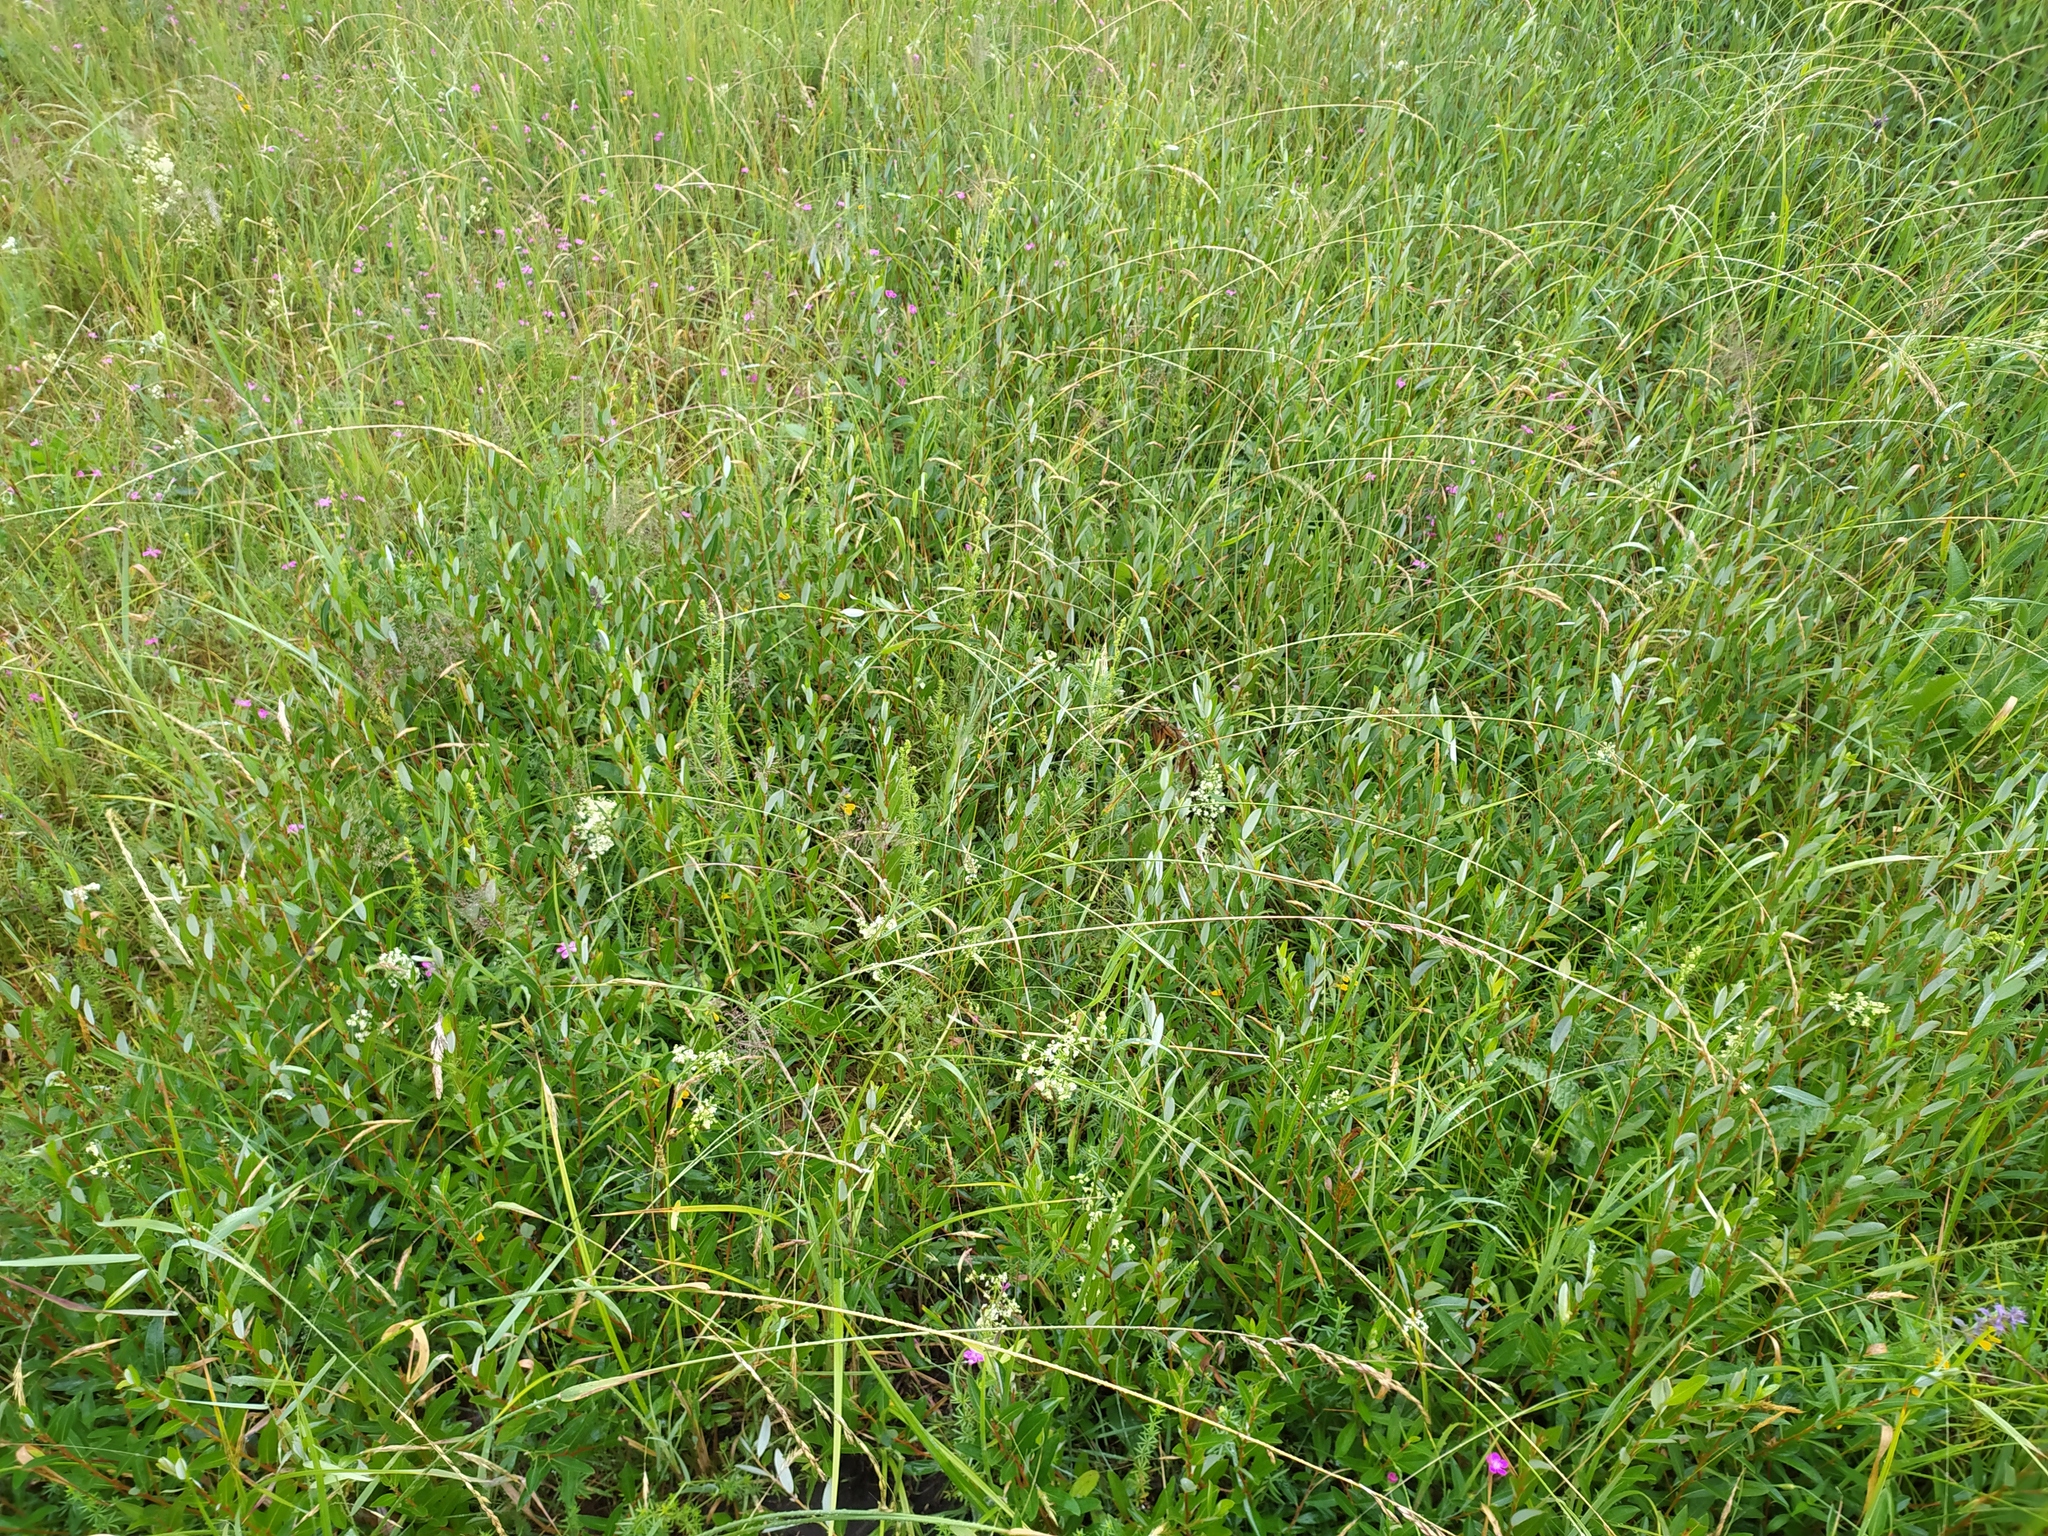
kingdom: Plantae
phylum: Tracheophyta
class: Magnoliopsida
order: Malpighiales
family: Salicaceae
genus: Salix
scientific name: Salix repens
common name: Creeping willow
